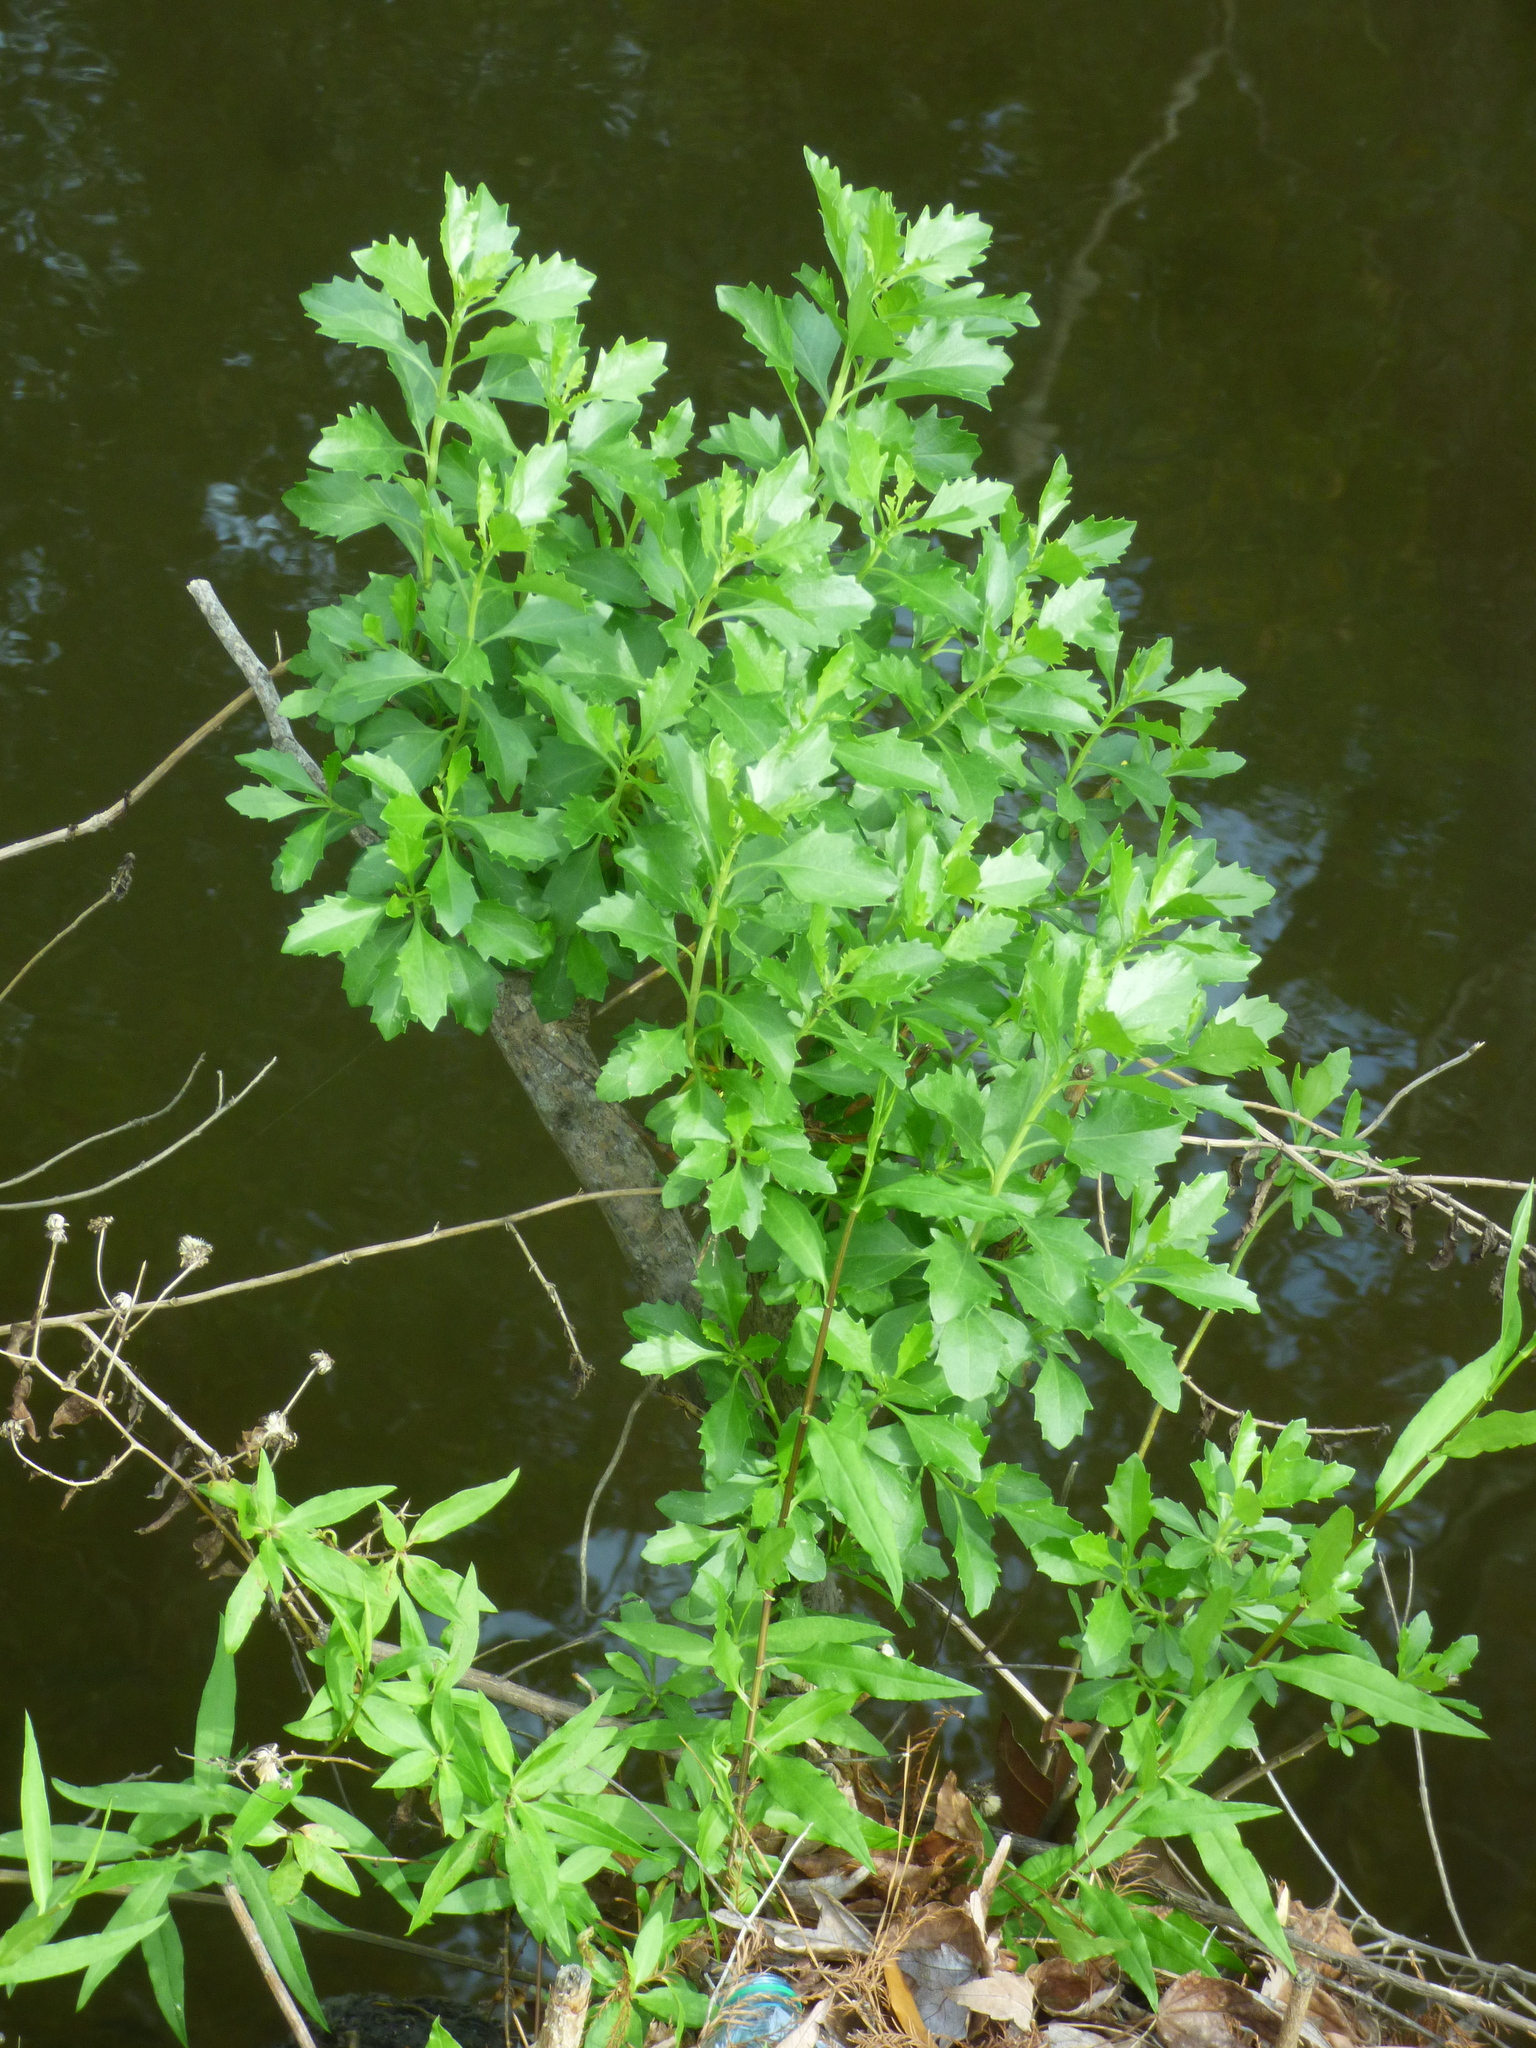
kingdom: Plantae
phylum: Tracheophyta
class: Magnoliopsida
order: Asterales
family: Asteraceae
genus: Baccharis
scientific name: Baccharis halimifolia
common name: Eastern baccharis
